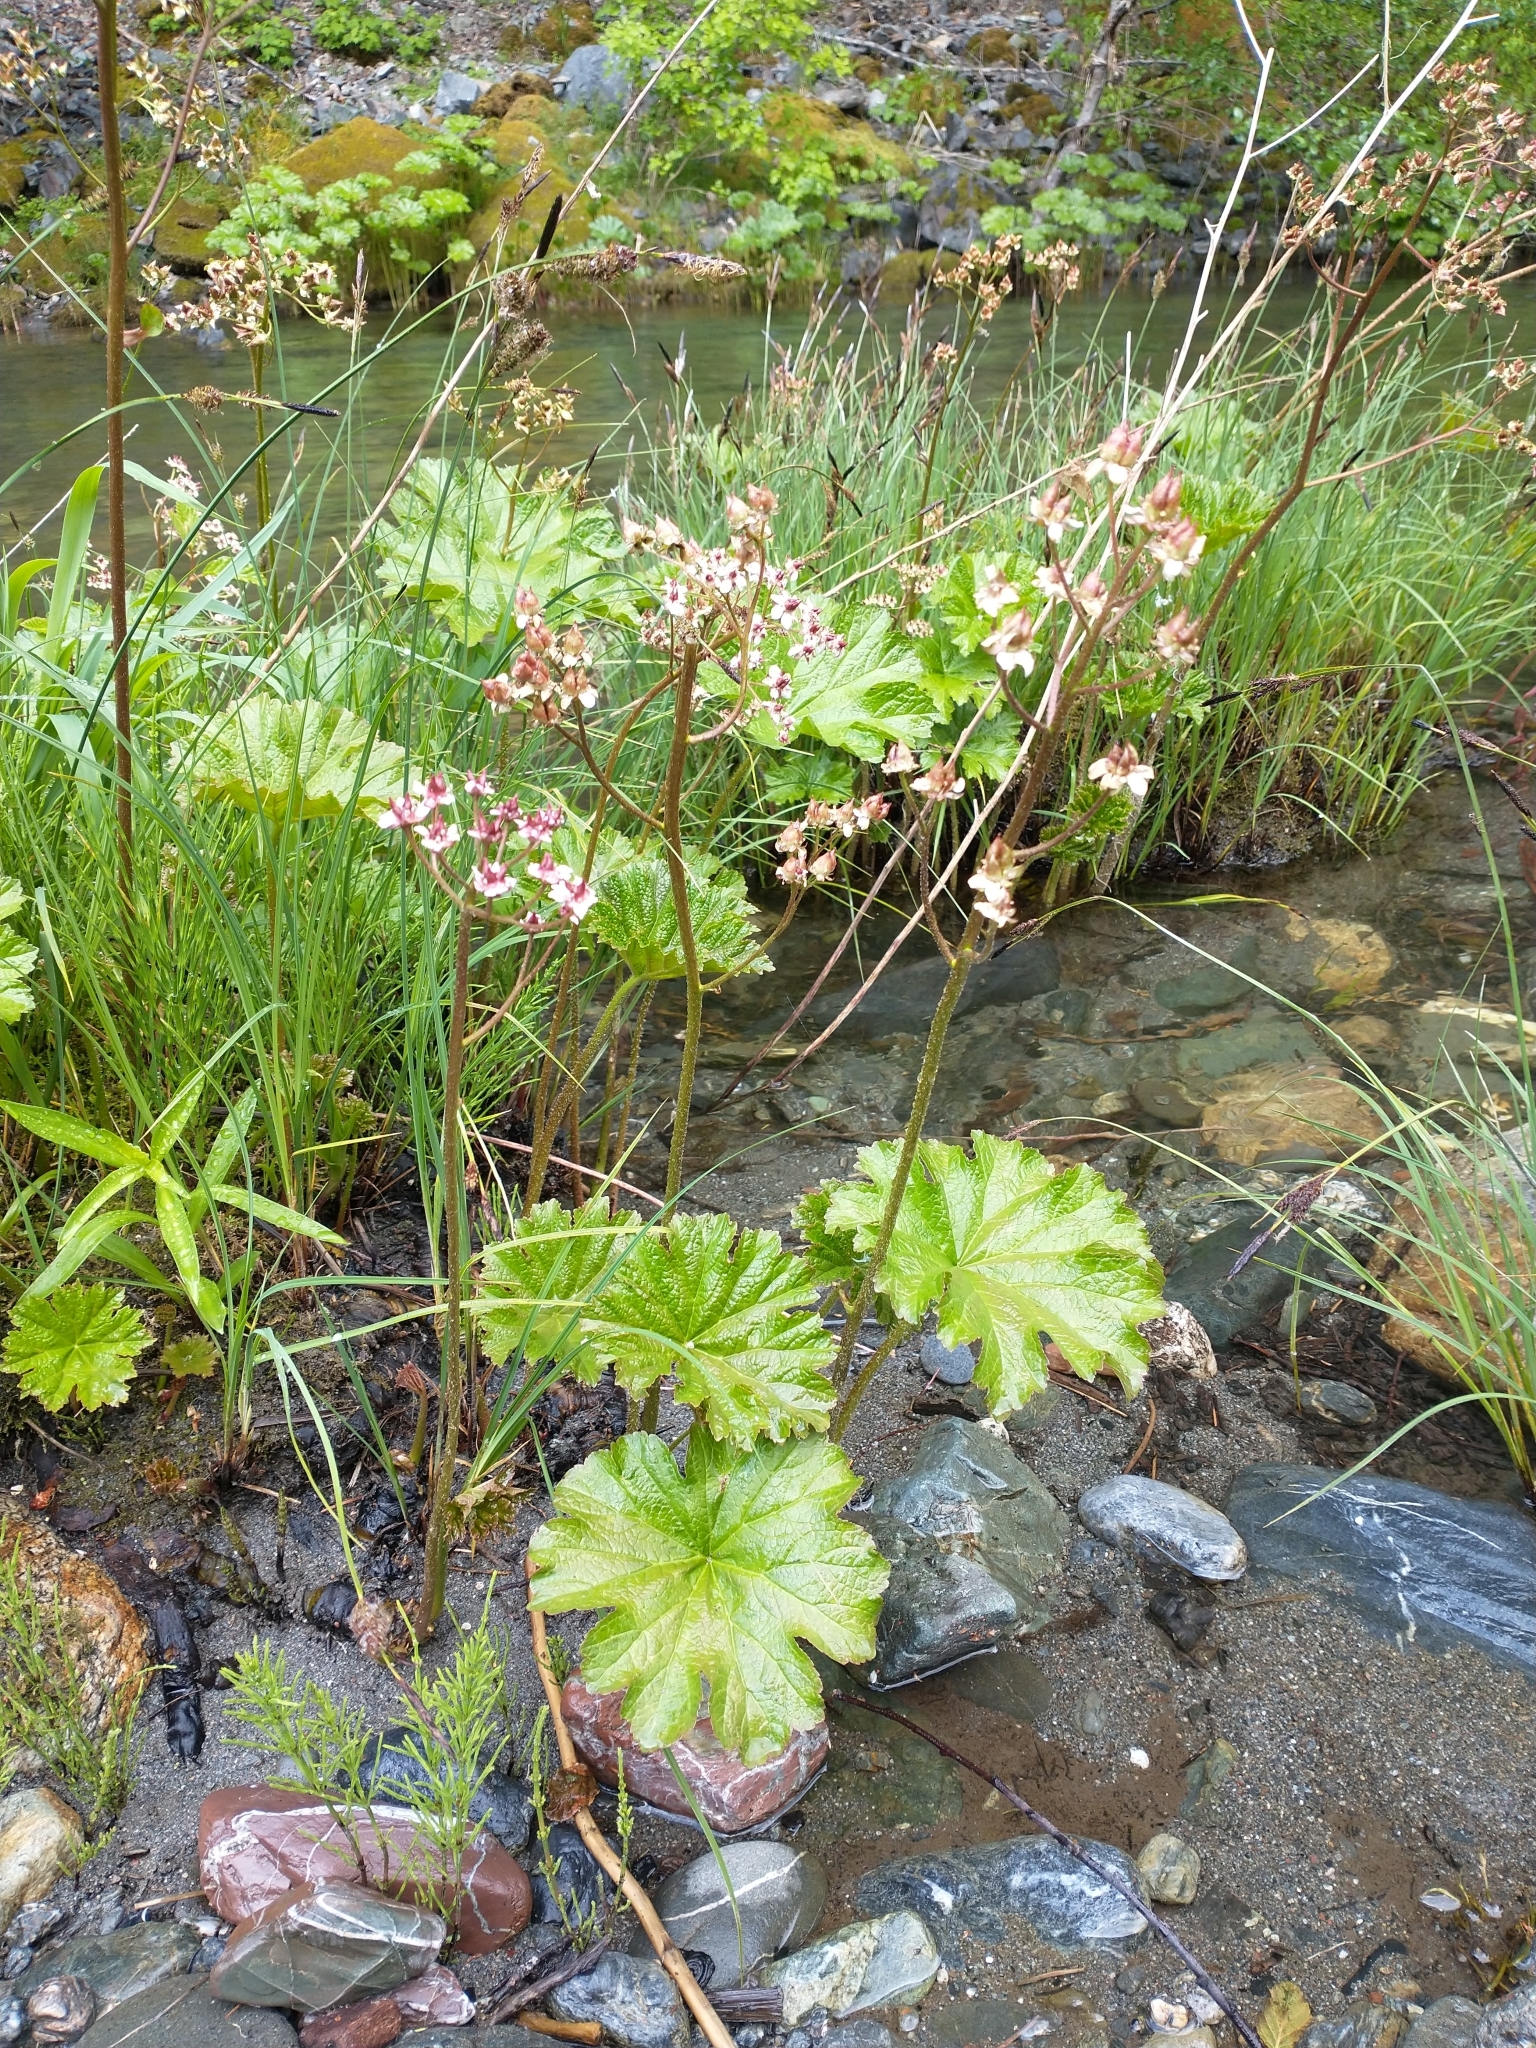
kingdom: Plantae
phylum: Tracheophyta
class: Magnoliopsida
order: Saxifragales
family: Saxifragaceae
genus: Darmera
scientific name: Darmera peltata
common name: Indian-rhubarb
